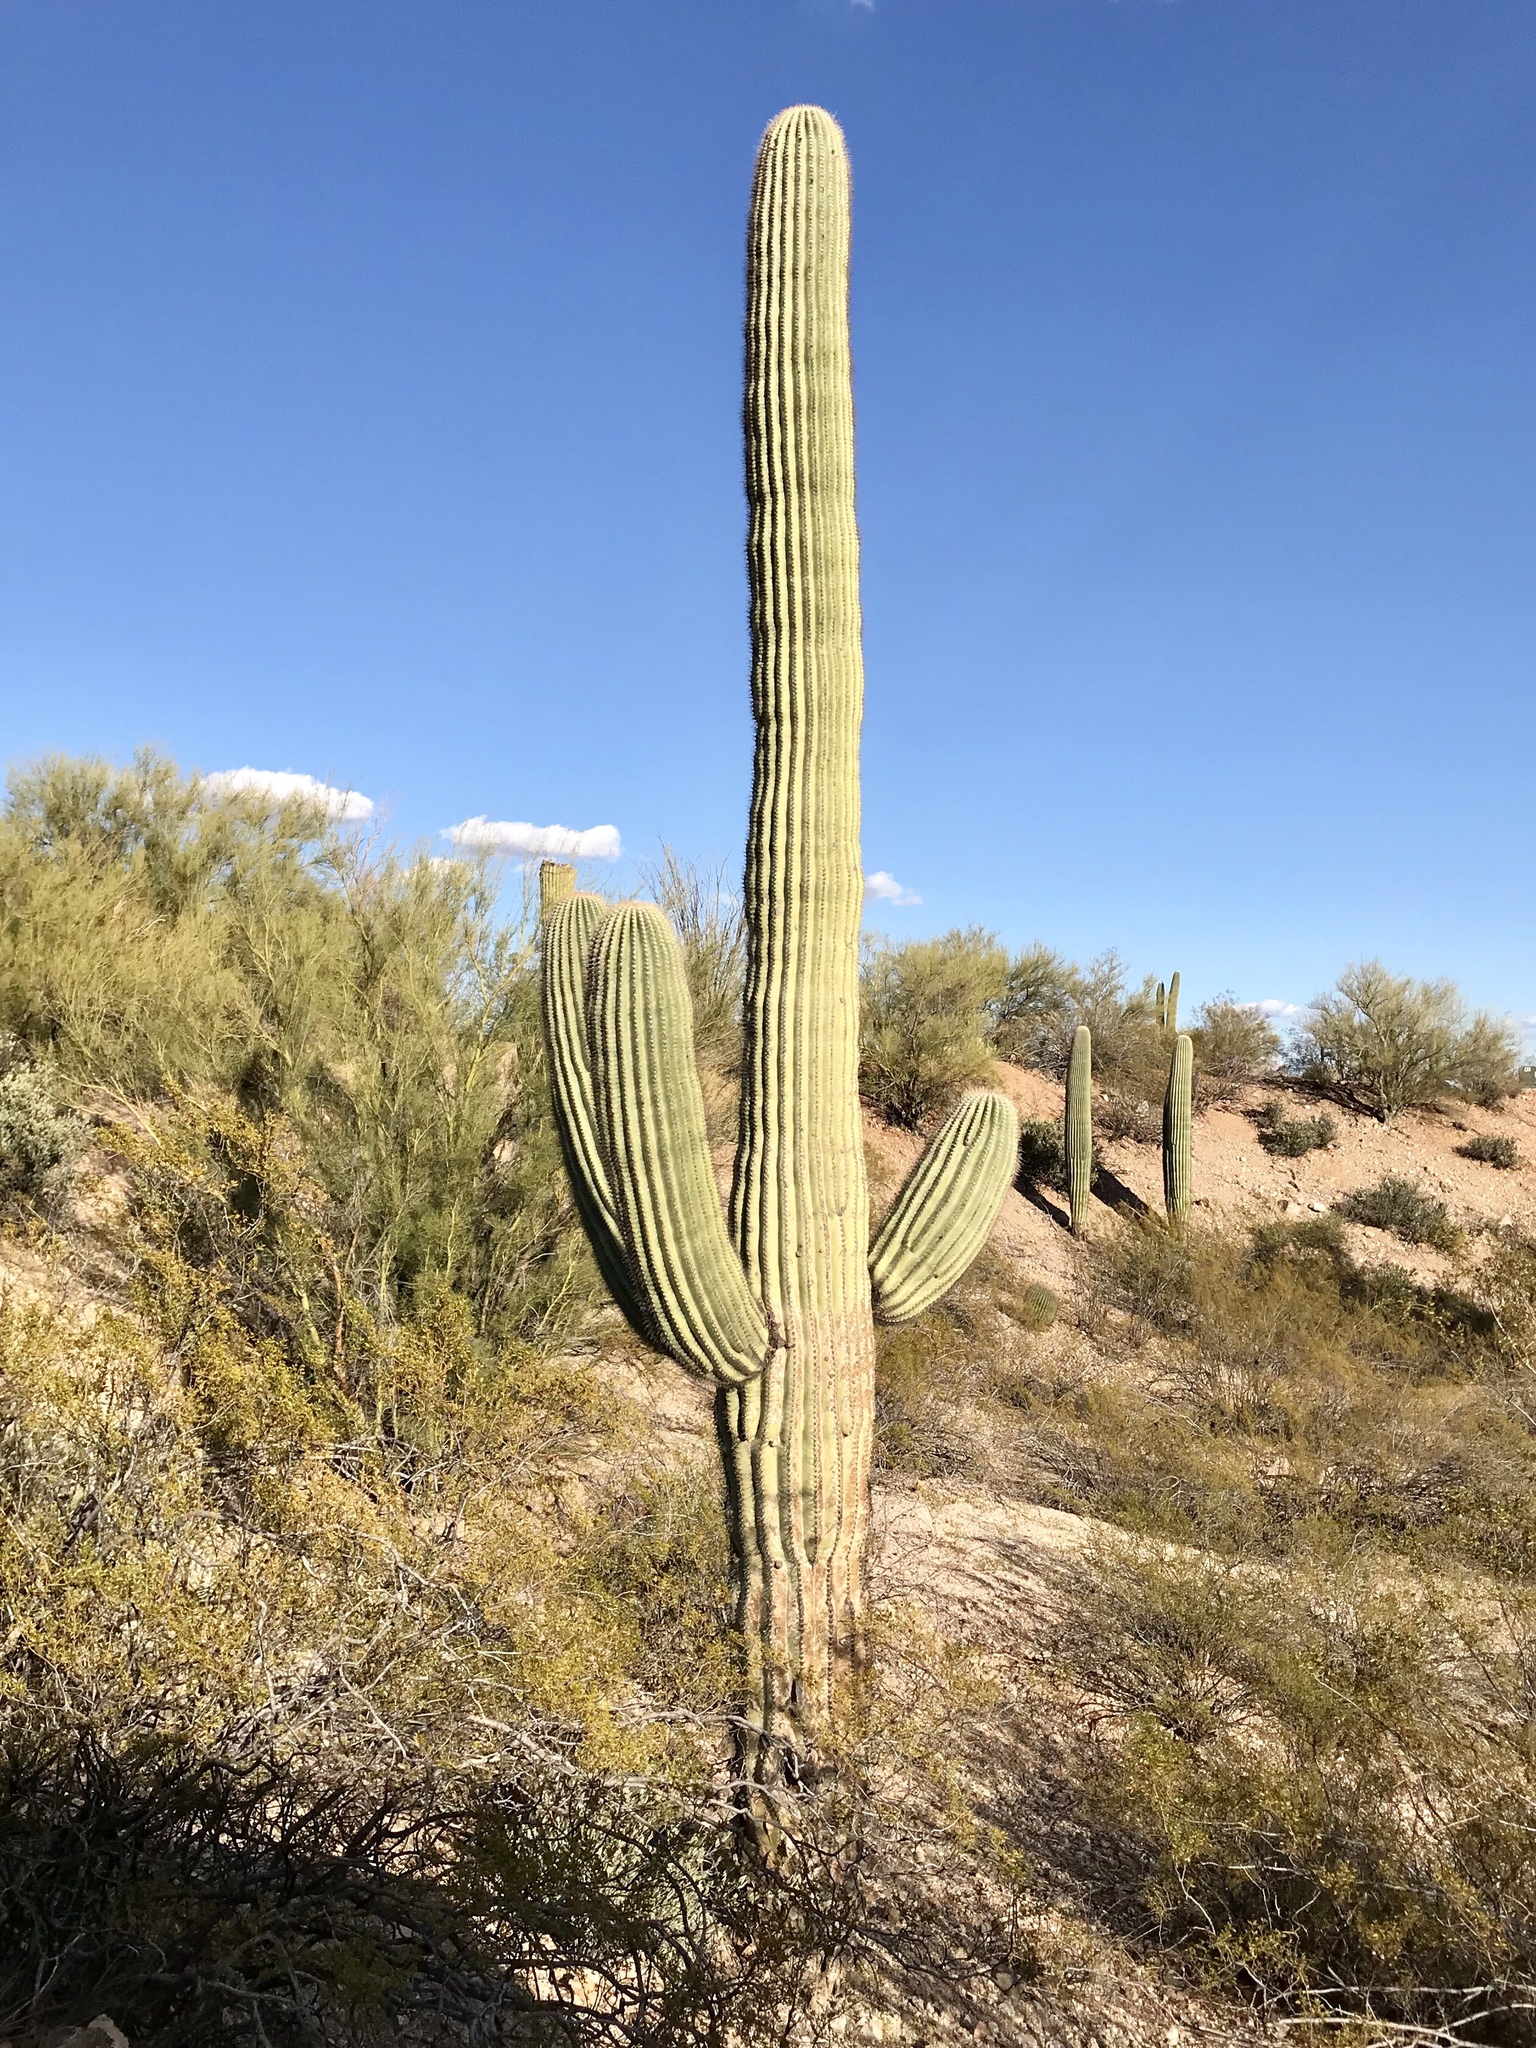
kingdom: Plantae
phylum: Tracheophyta
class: Magnoliopsida
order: Caryophyllales
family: Cactaceae
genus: Carnegiea
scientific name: Carnegiea gigantea
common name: Saguaro
